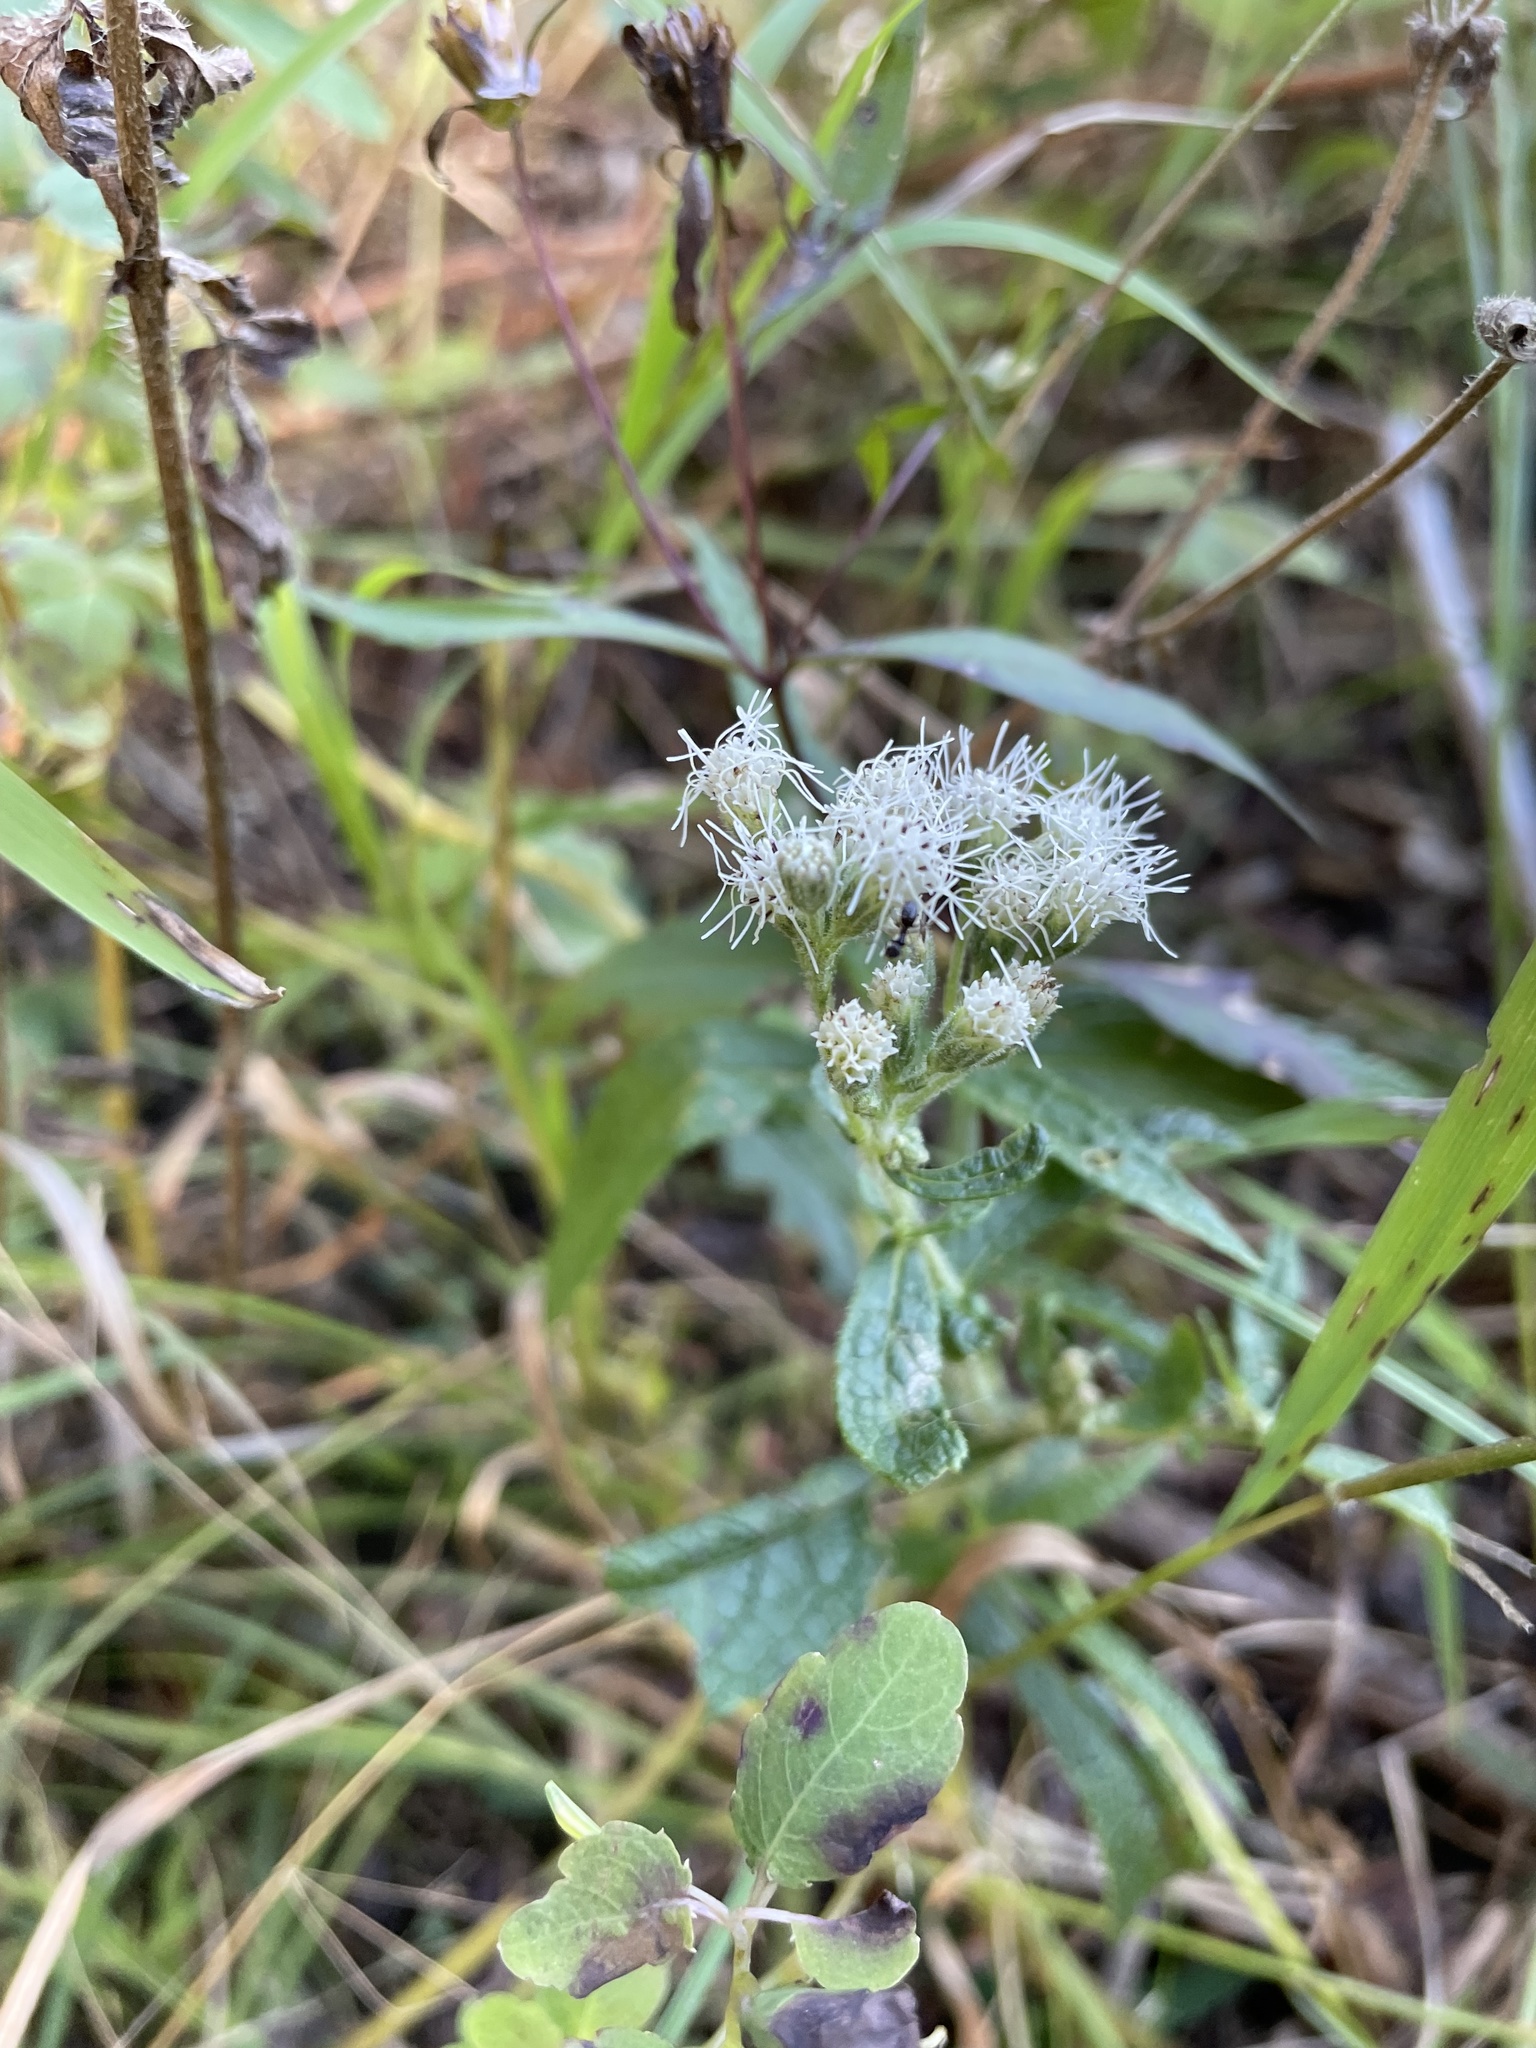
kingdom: Plantae
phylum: Tracheophyta
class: Magnoliopsida
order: Asterales
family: Asteraceae
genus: Eupatorium
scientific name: Eupatorium perfoliatum
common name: Boneset
